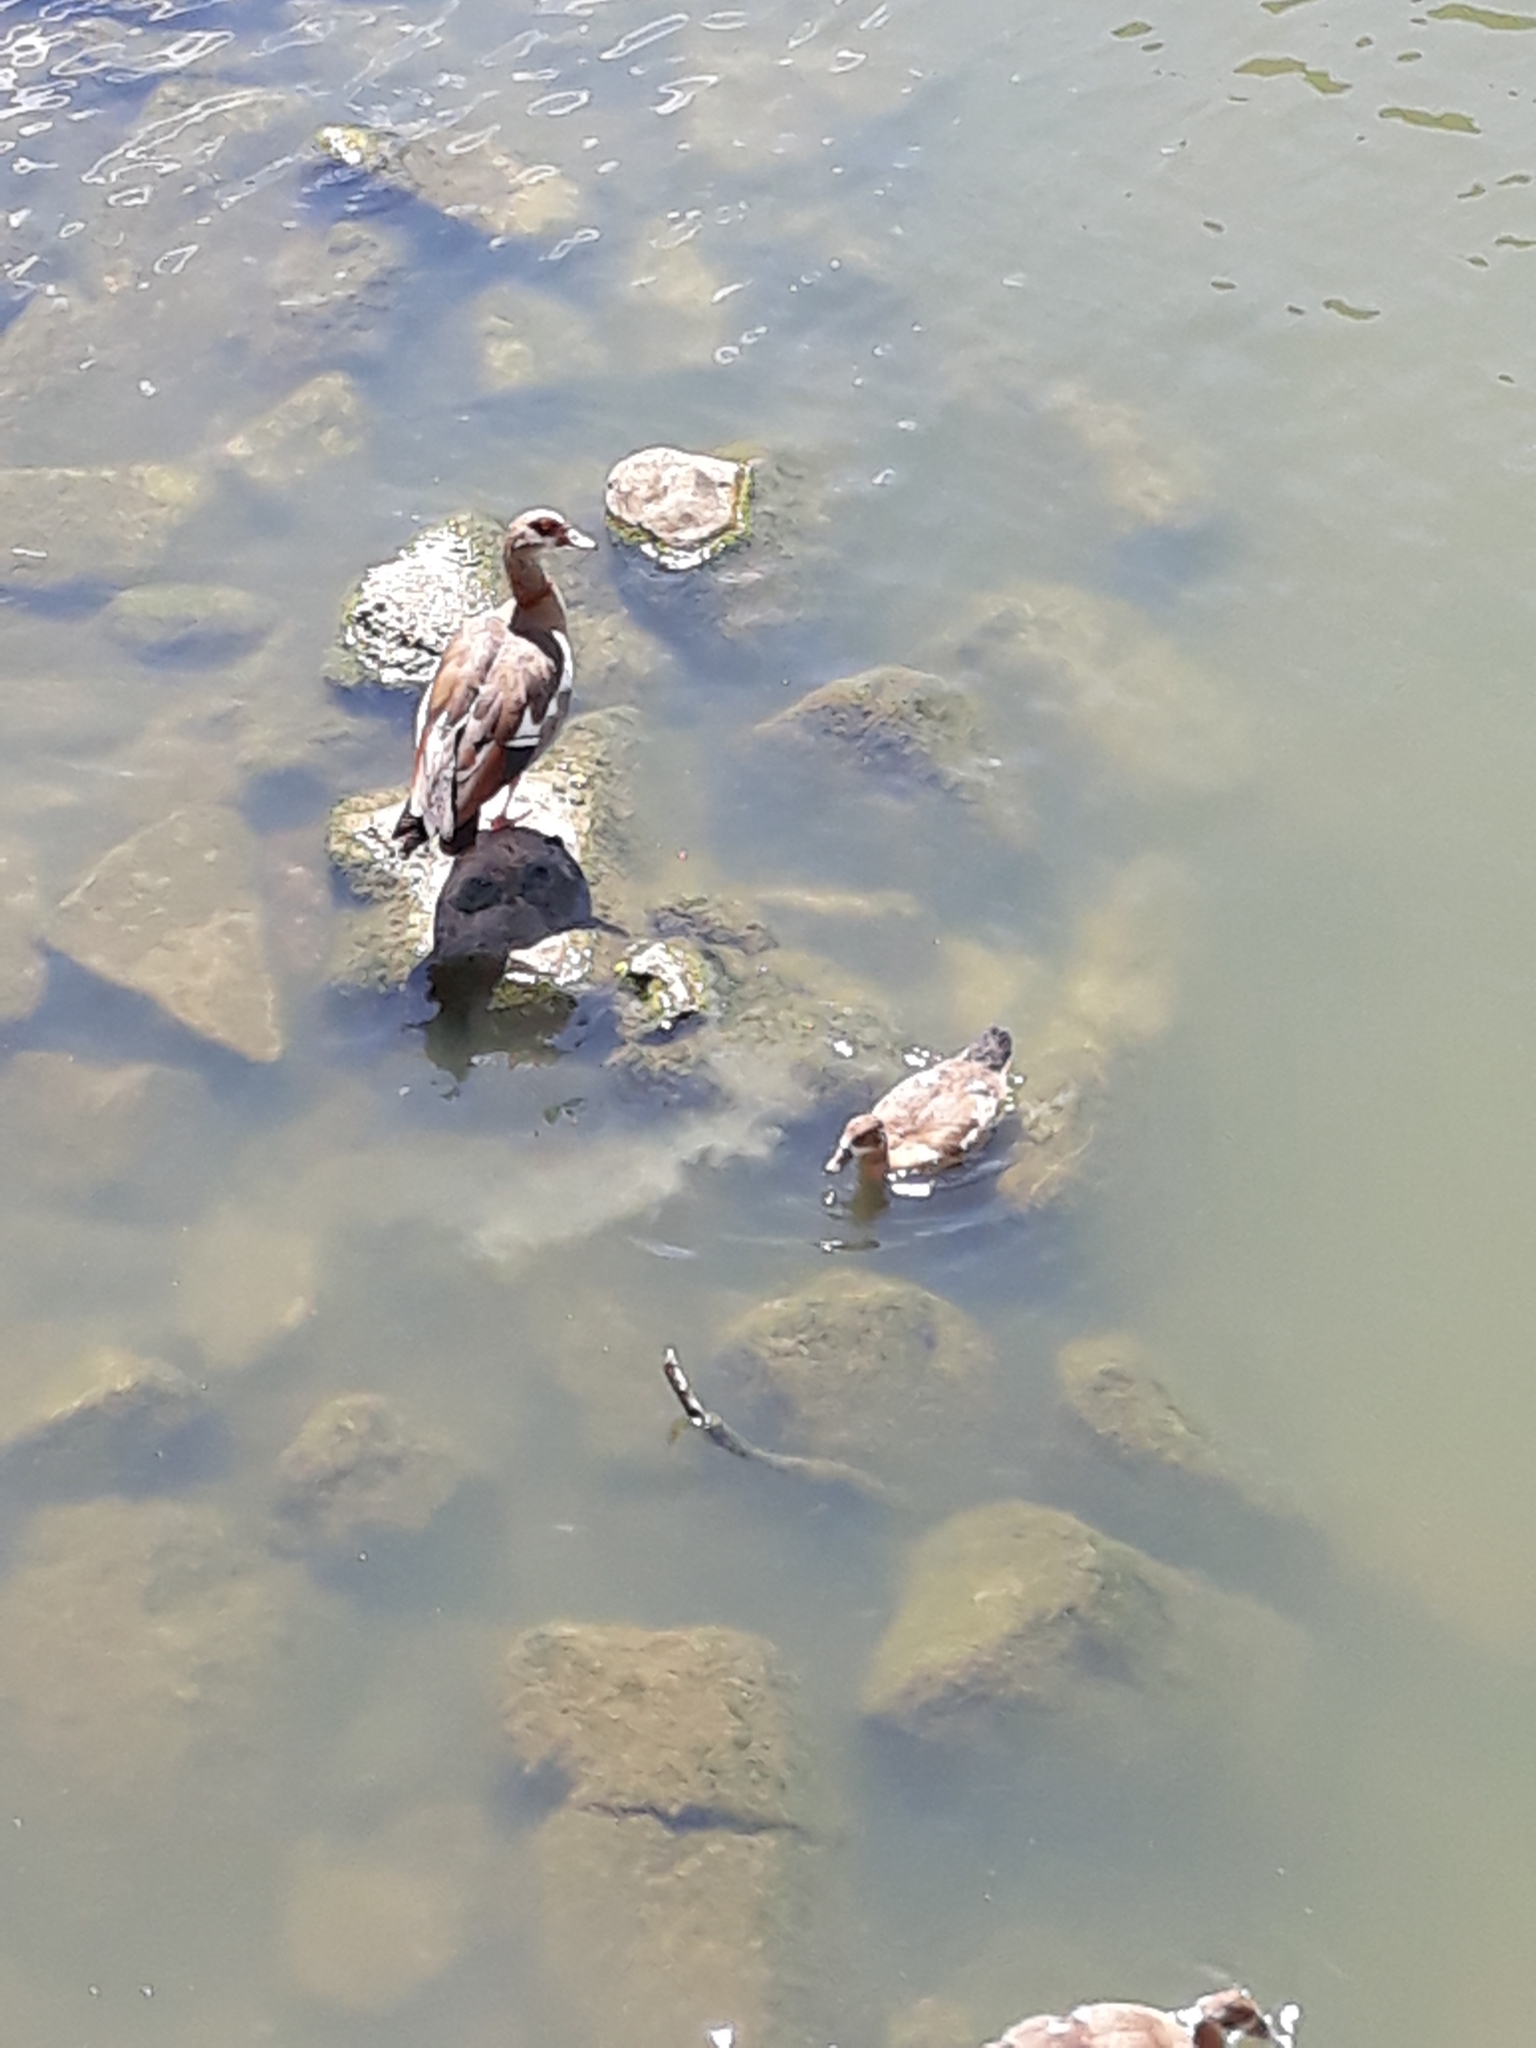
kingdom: Animalia
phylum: Chordata
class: Aves
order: Anseriformes
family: Anatidae
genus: Alopochen
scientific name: Alopochen aegyptiaca
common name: Egyptian goose
